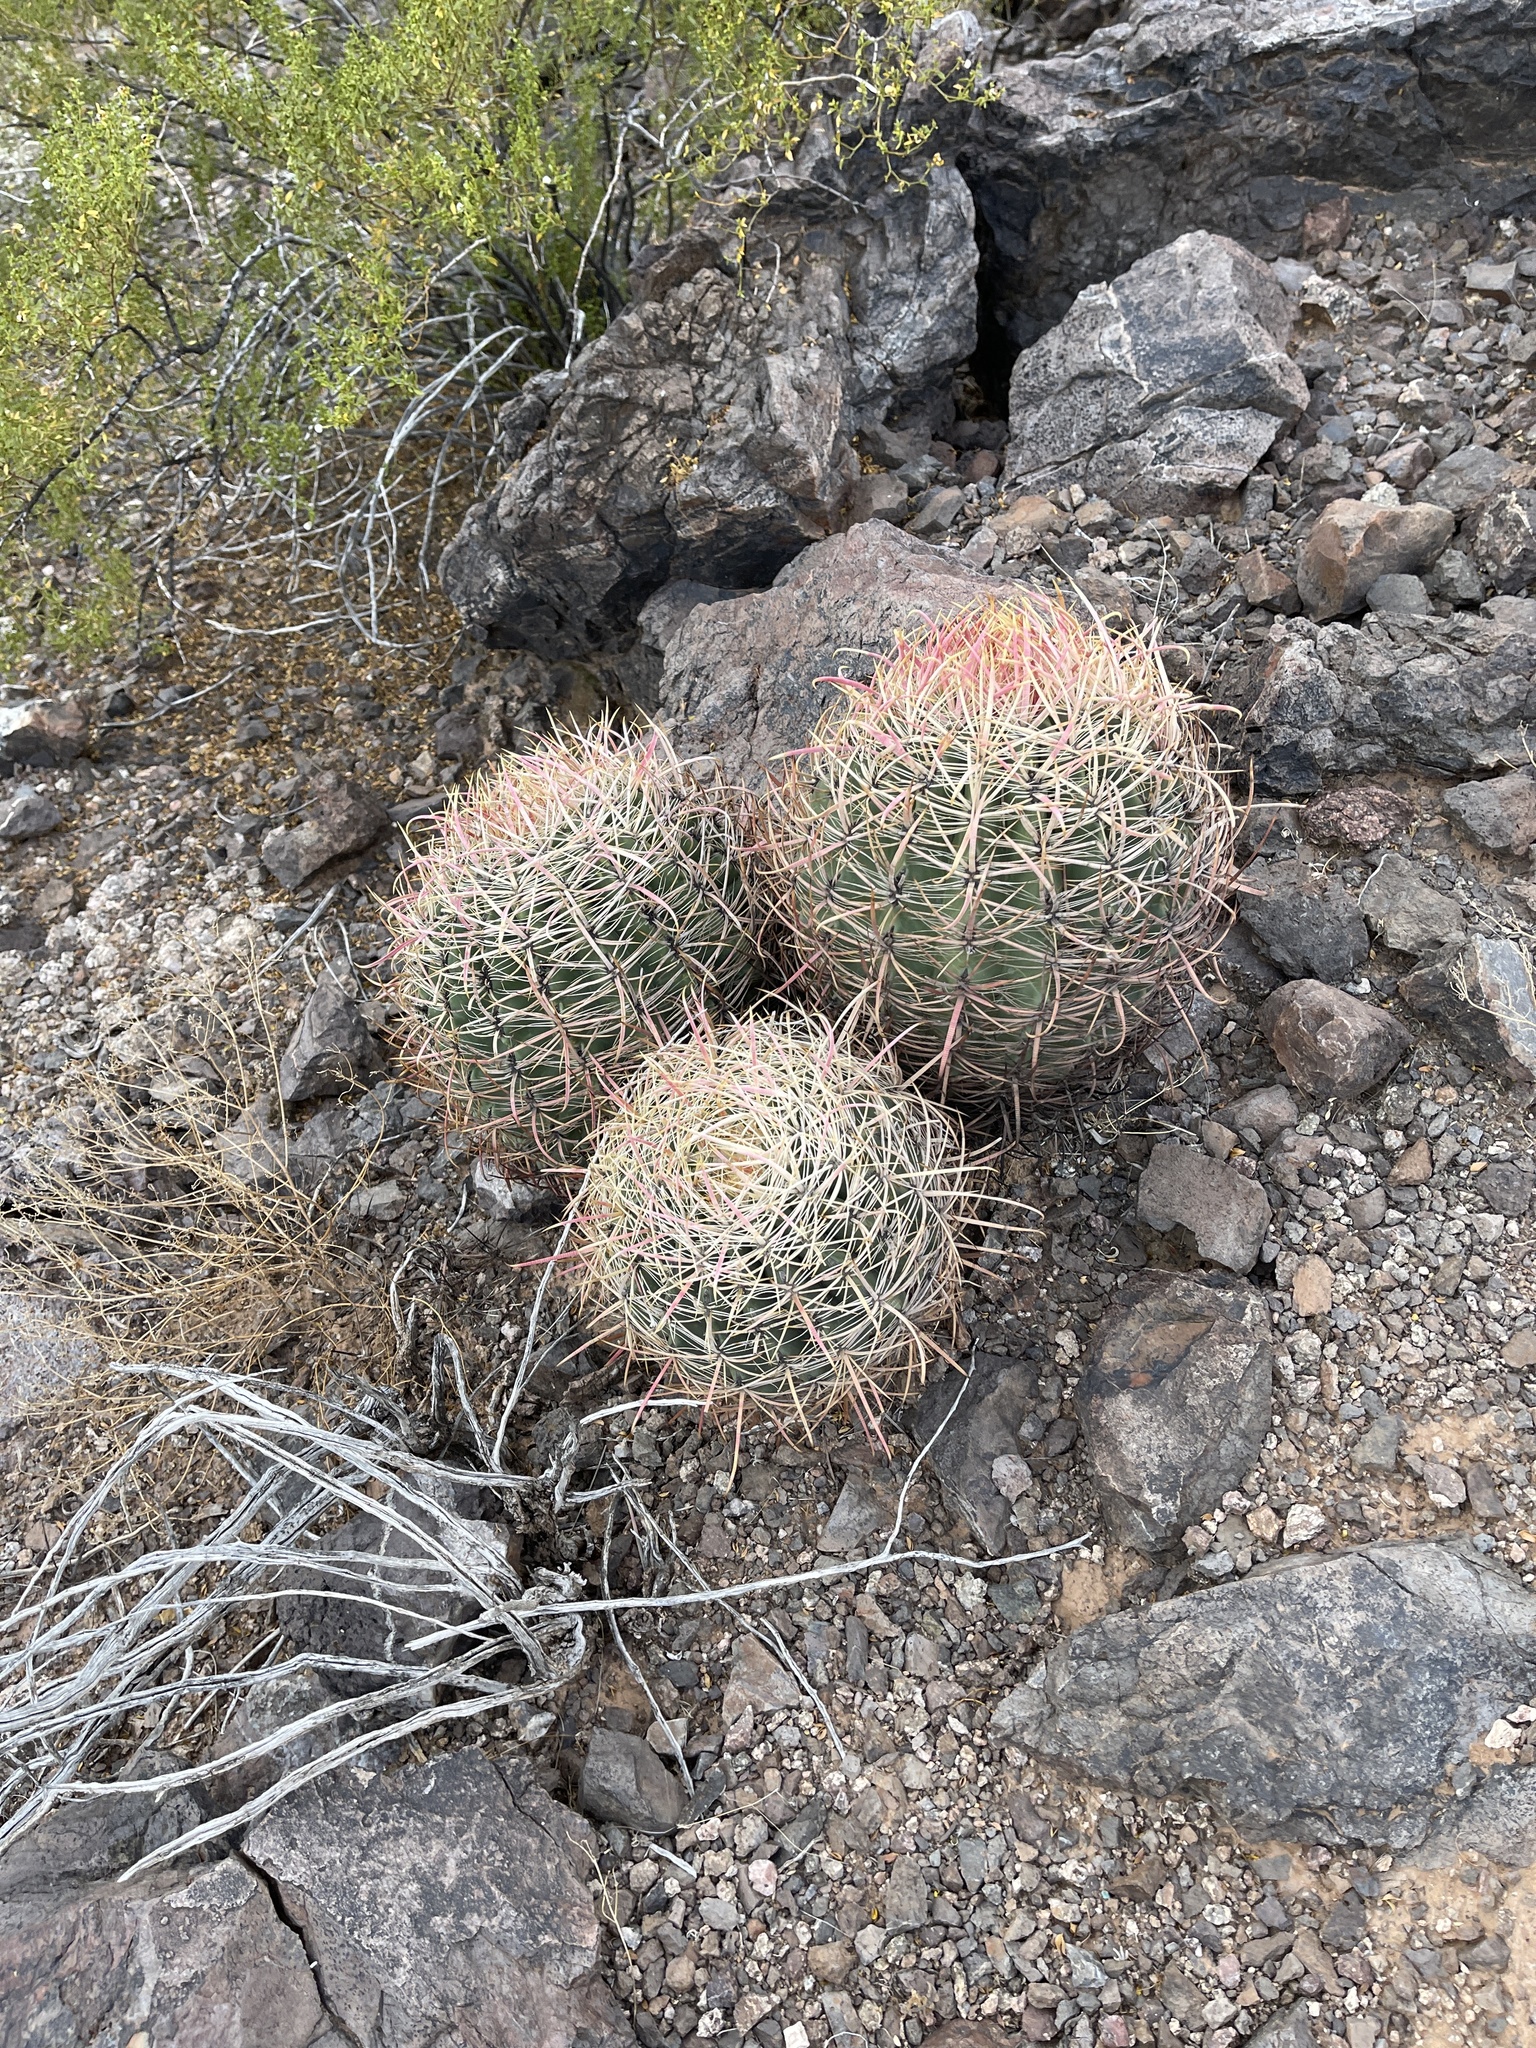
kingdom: Plantae
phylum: Tracheophyta
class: Magnoliopsida
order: Caryophyllales
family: Cactaceae
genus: Ferocactus
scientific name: Ferocactus cylindraceus
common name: California barrel cactus
